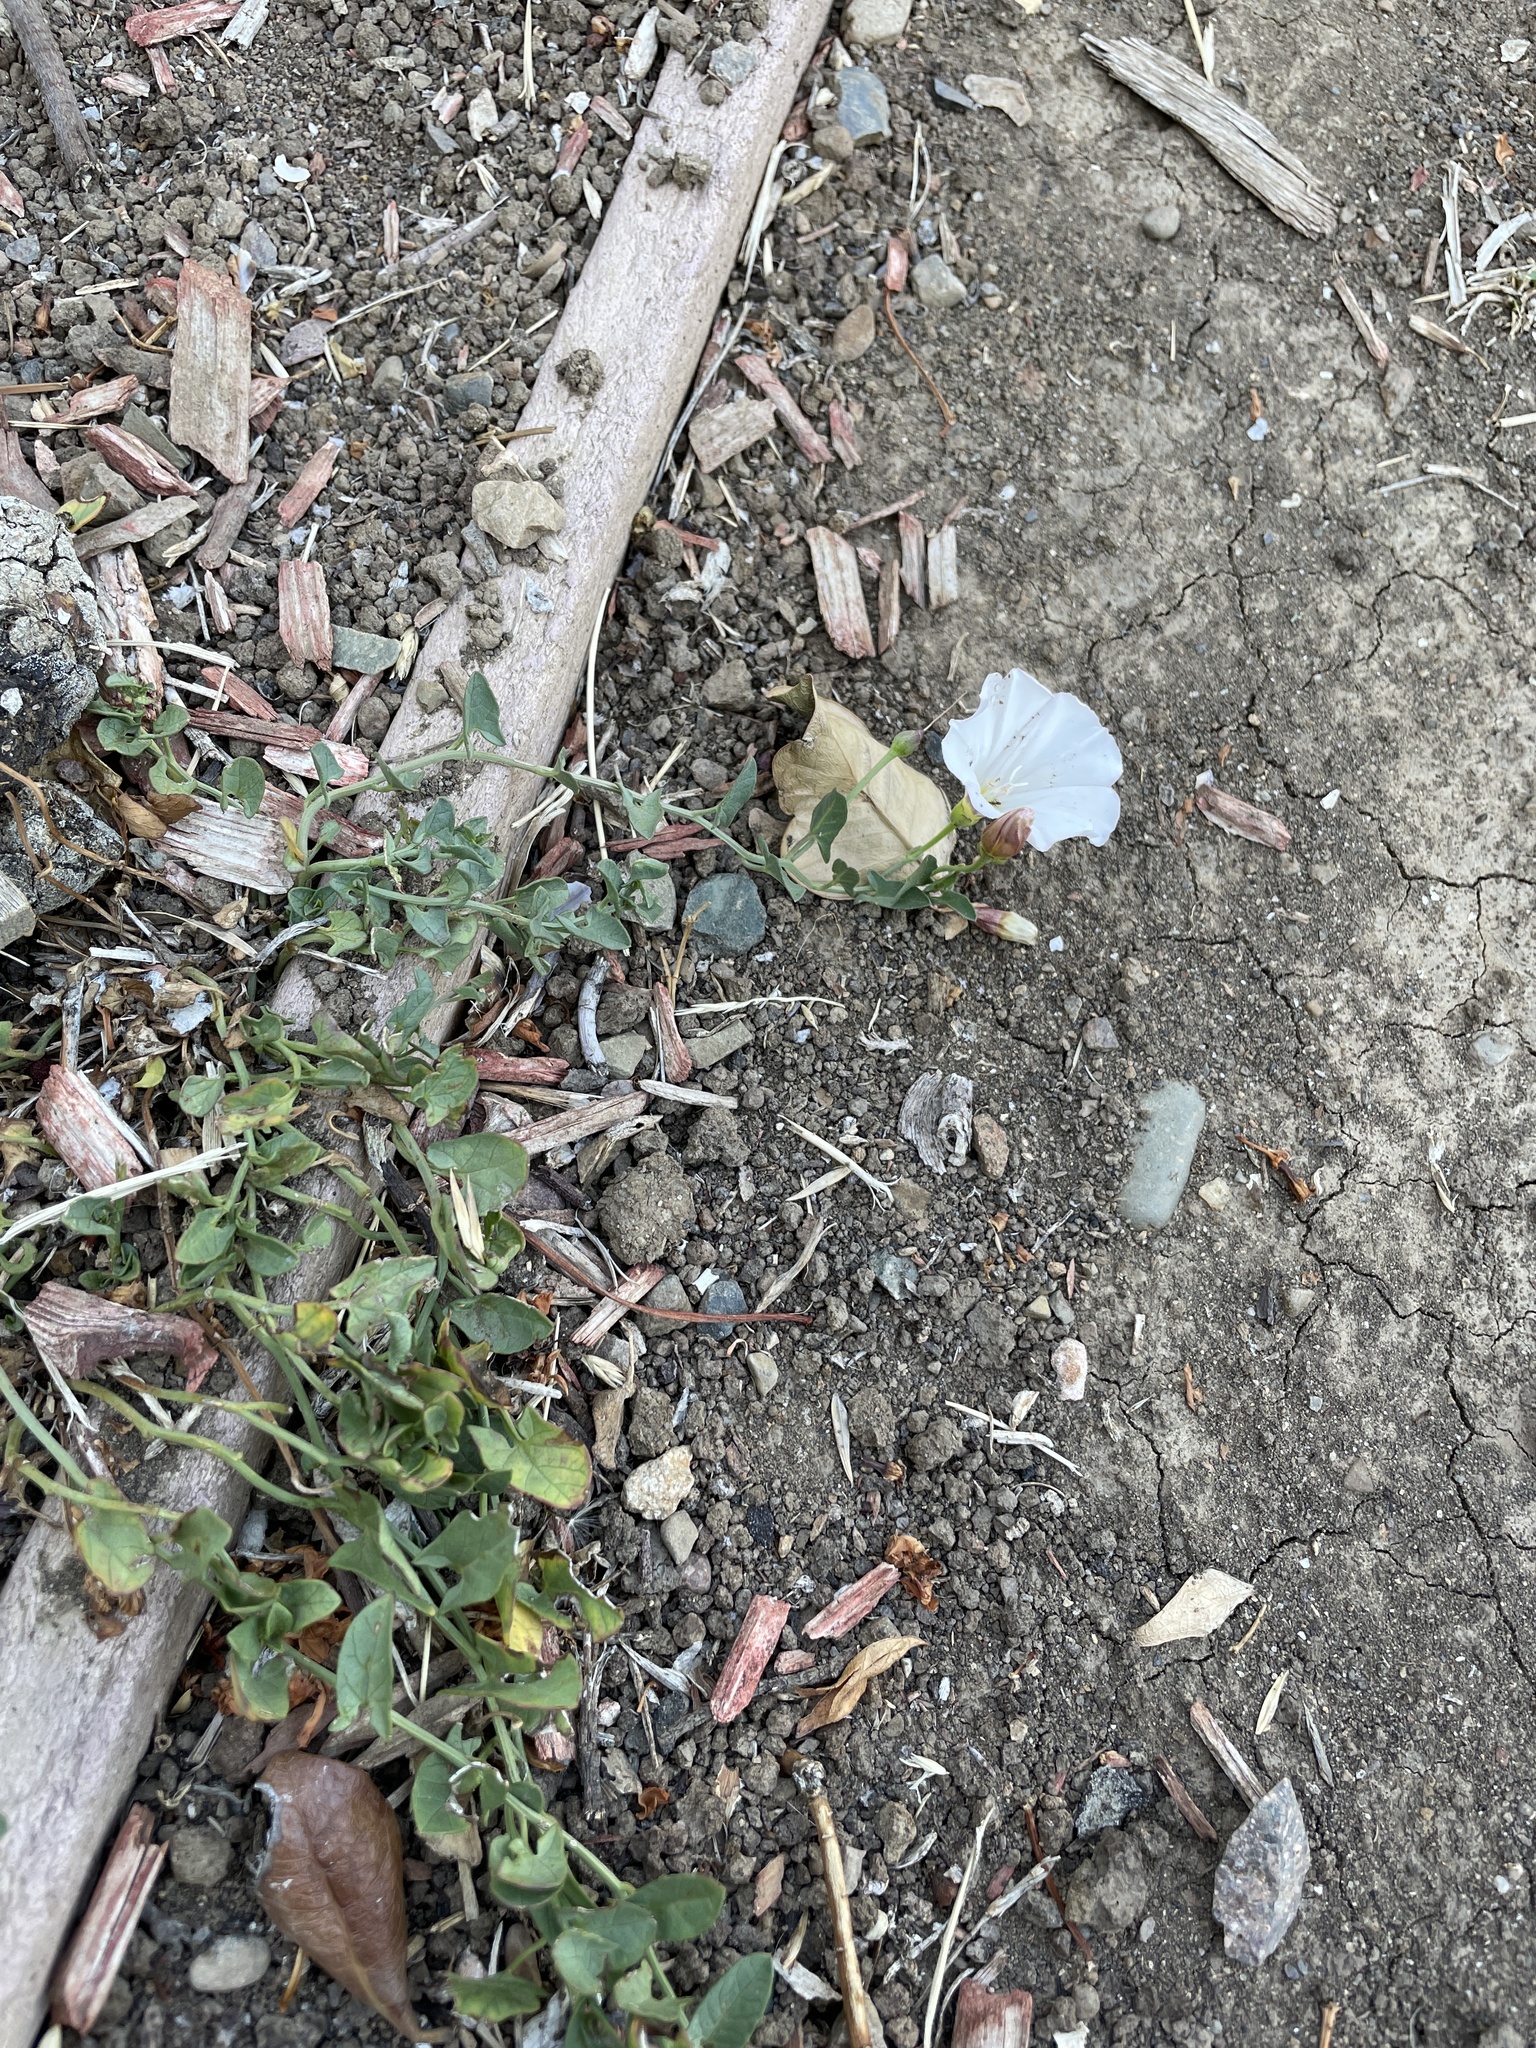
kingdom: Plantae
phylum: Tracheophyta
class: Magnoliopsida
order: Solanales
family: Convolvulaceae
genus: Convolvulus
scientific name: Convolvulus arvensis
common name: Field bindweed
